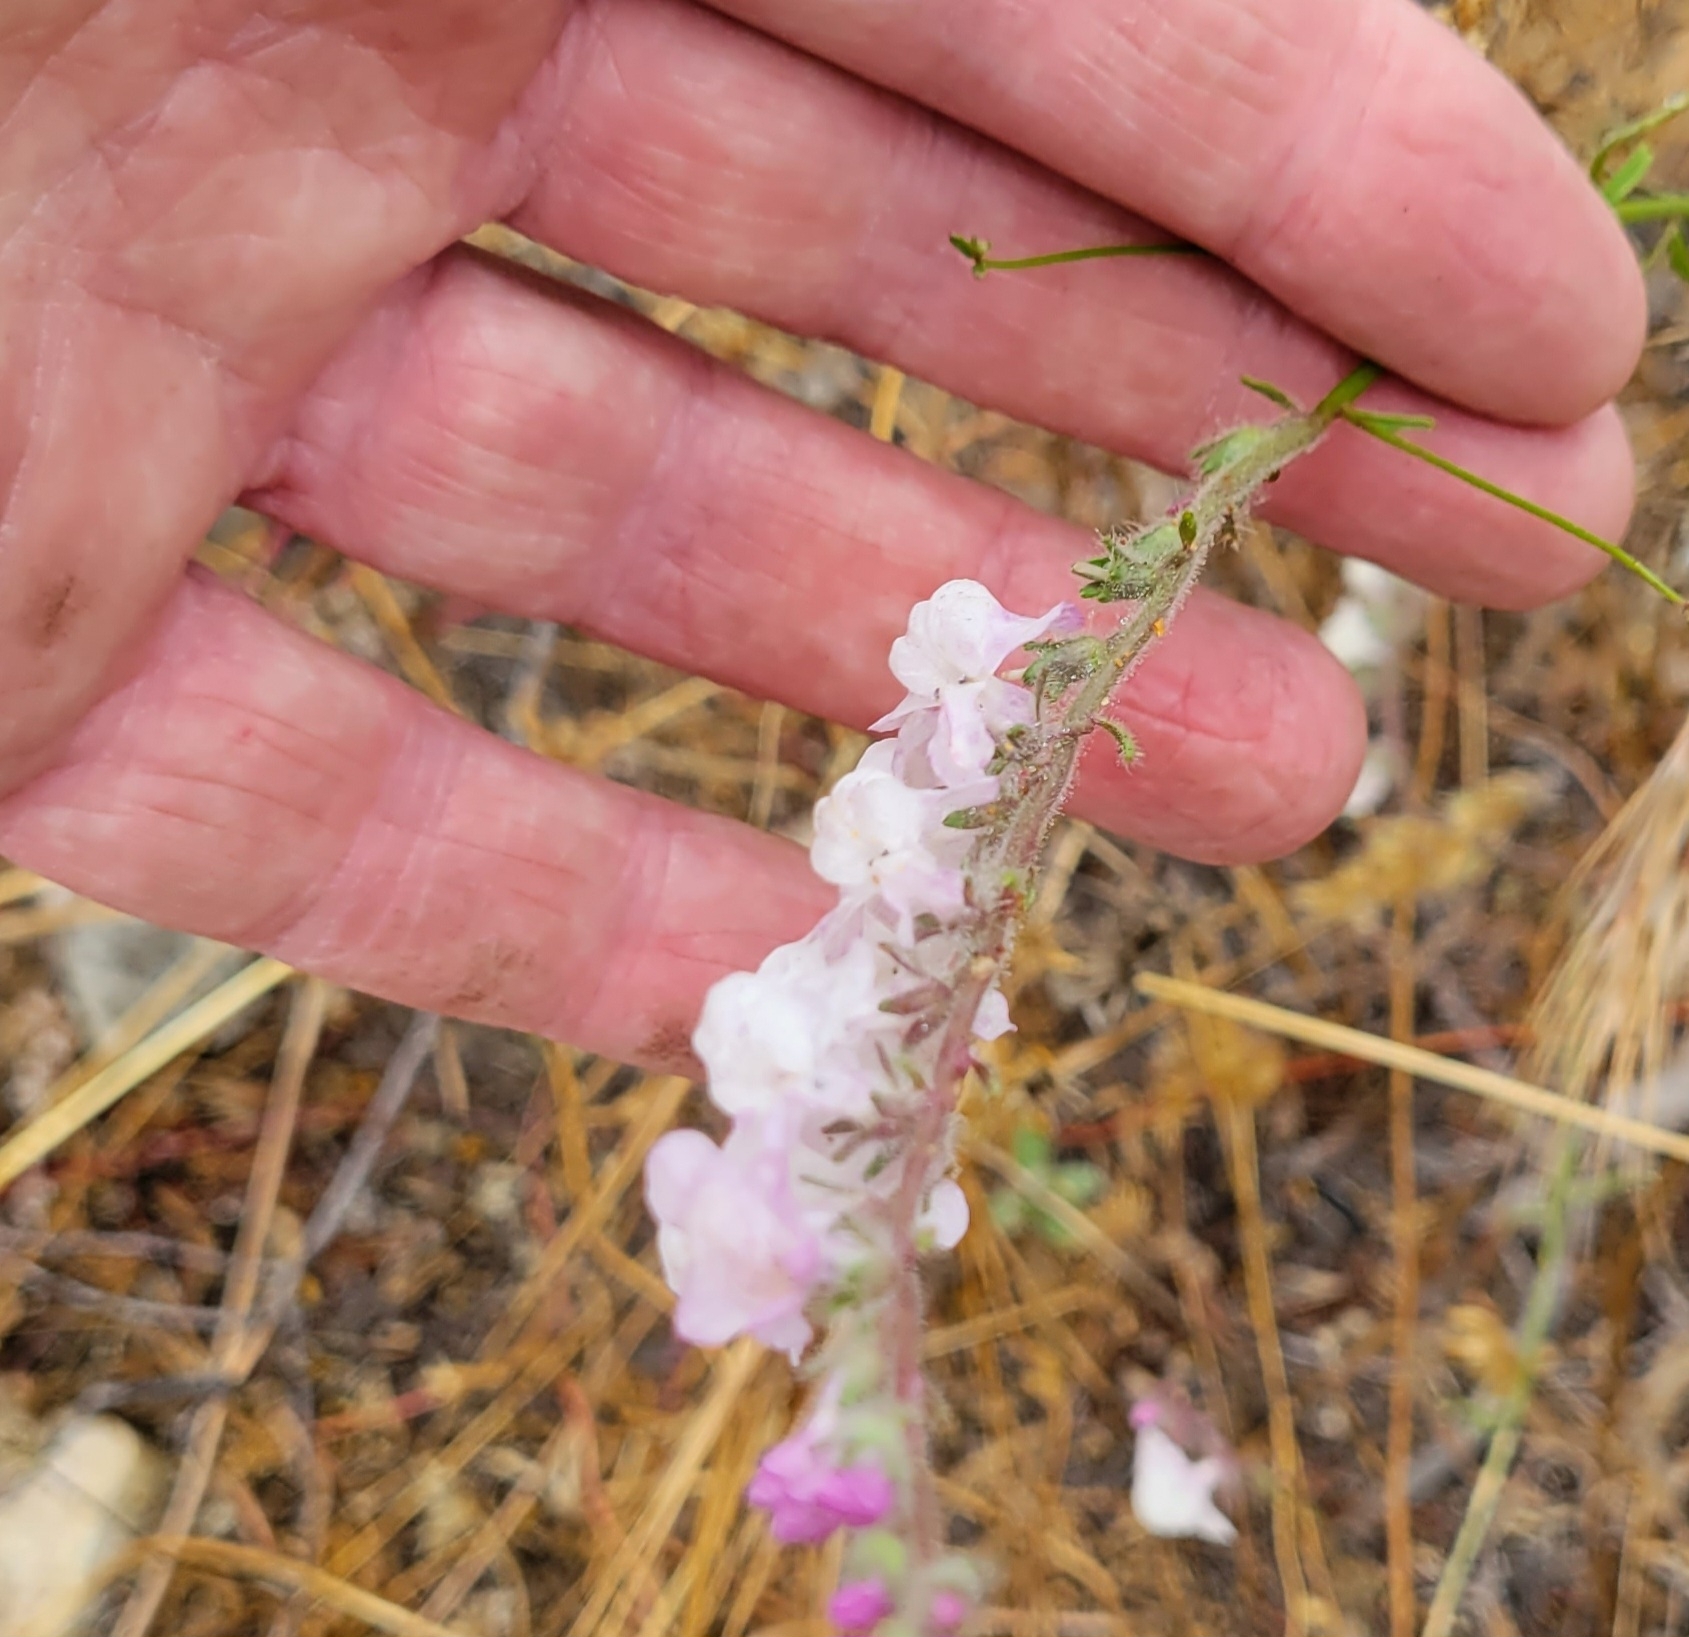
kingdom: Plantae
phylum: Tracheophyta
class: Magnoliopsida
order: Lamiales
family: Plantaginaceae
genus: Sairocarpus
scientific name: Sairocarpus coulterianus
